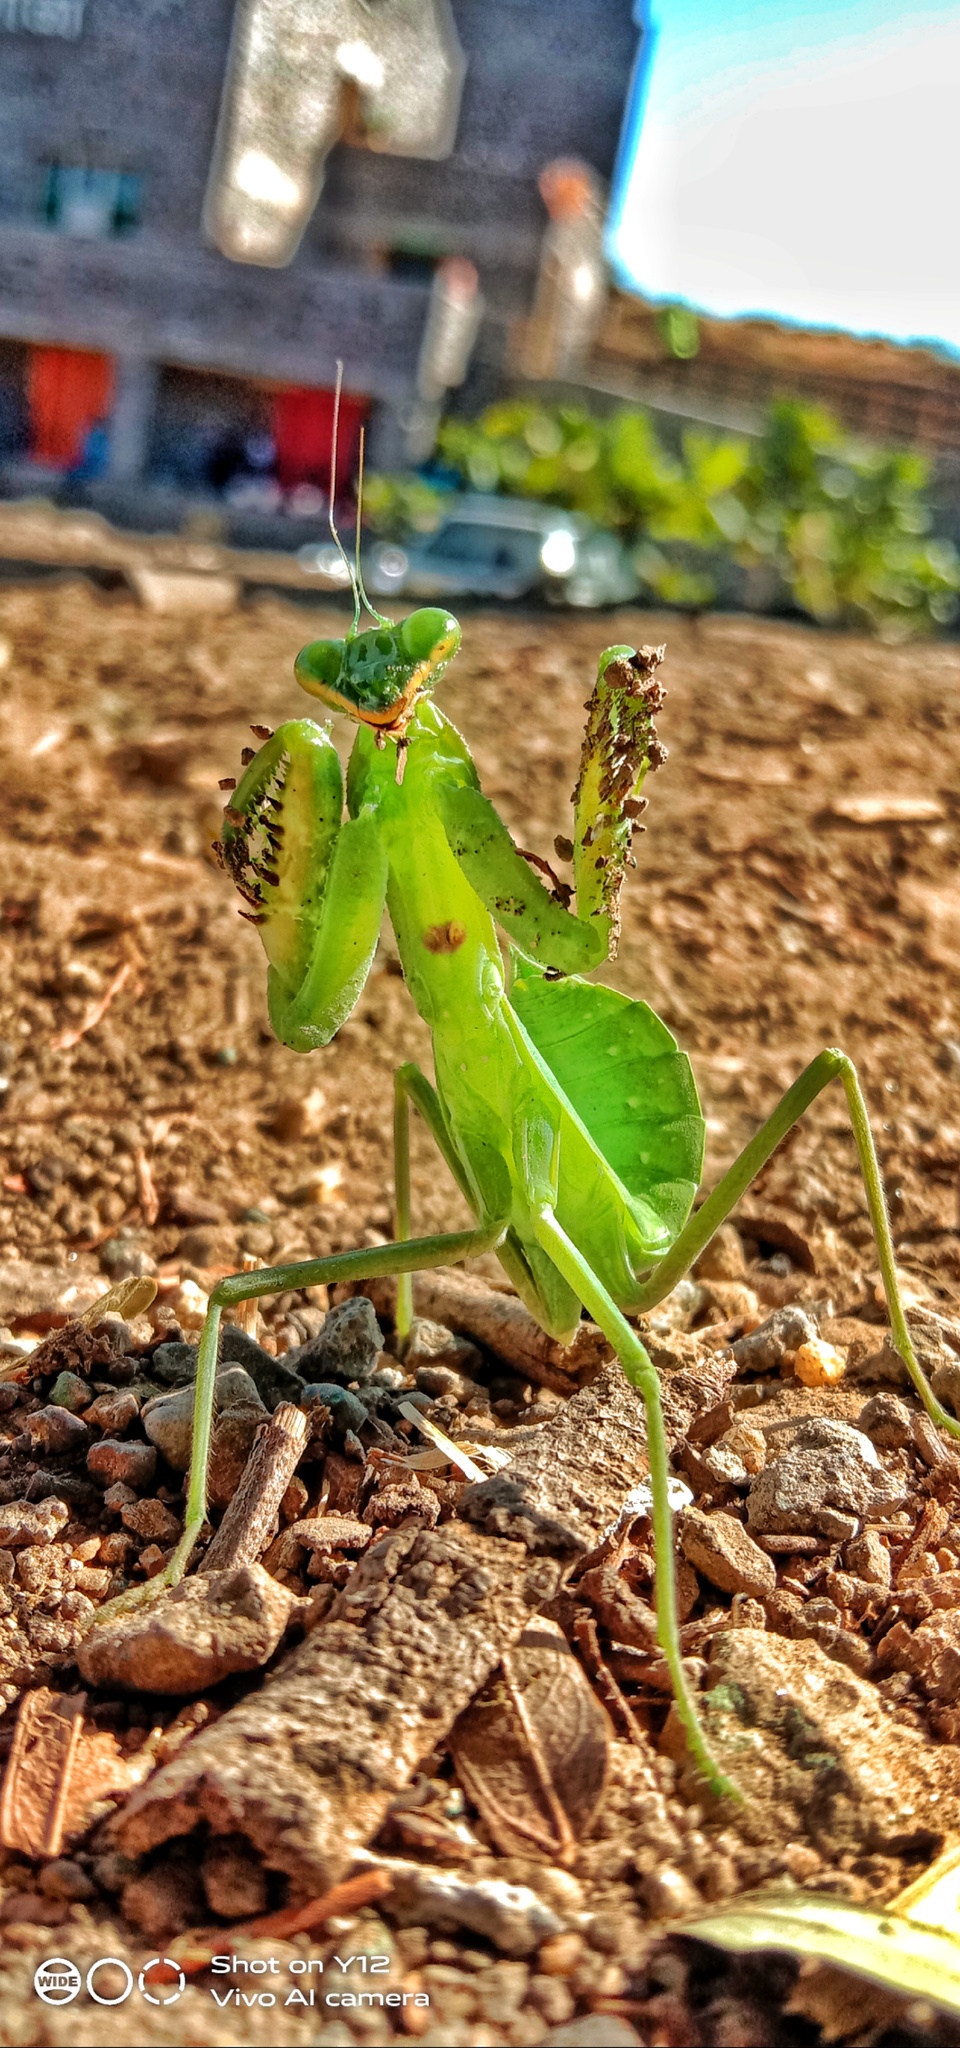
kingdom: Animalia
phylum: Arthropoda
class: Insecta
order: Mantodea
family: Mantidae
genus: Hierodula
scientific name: Hierodula coarctata
